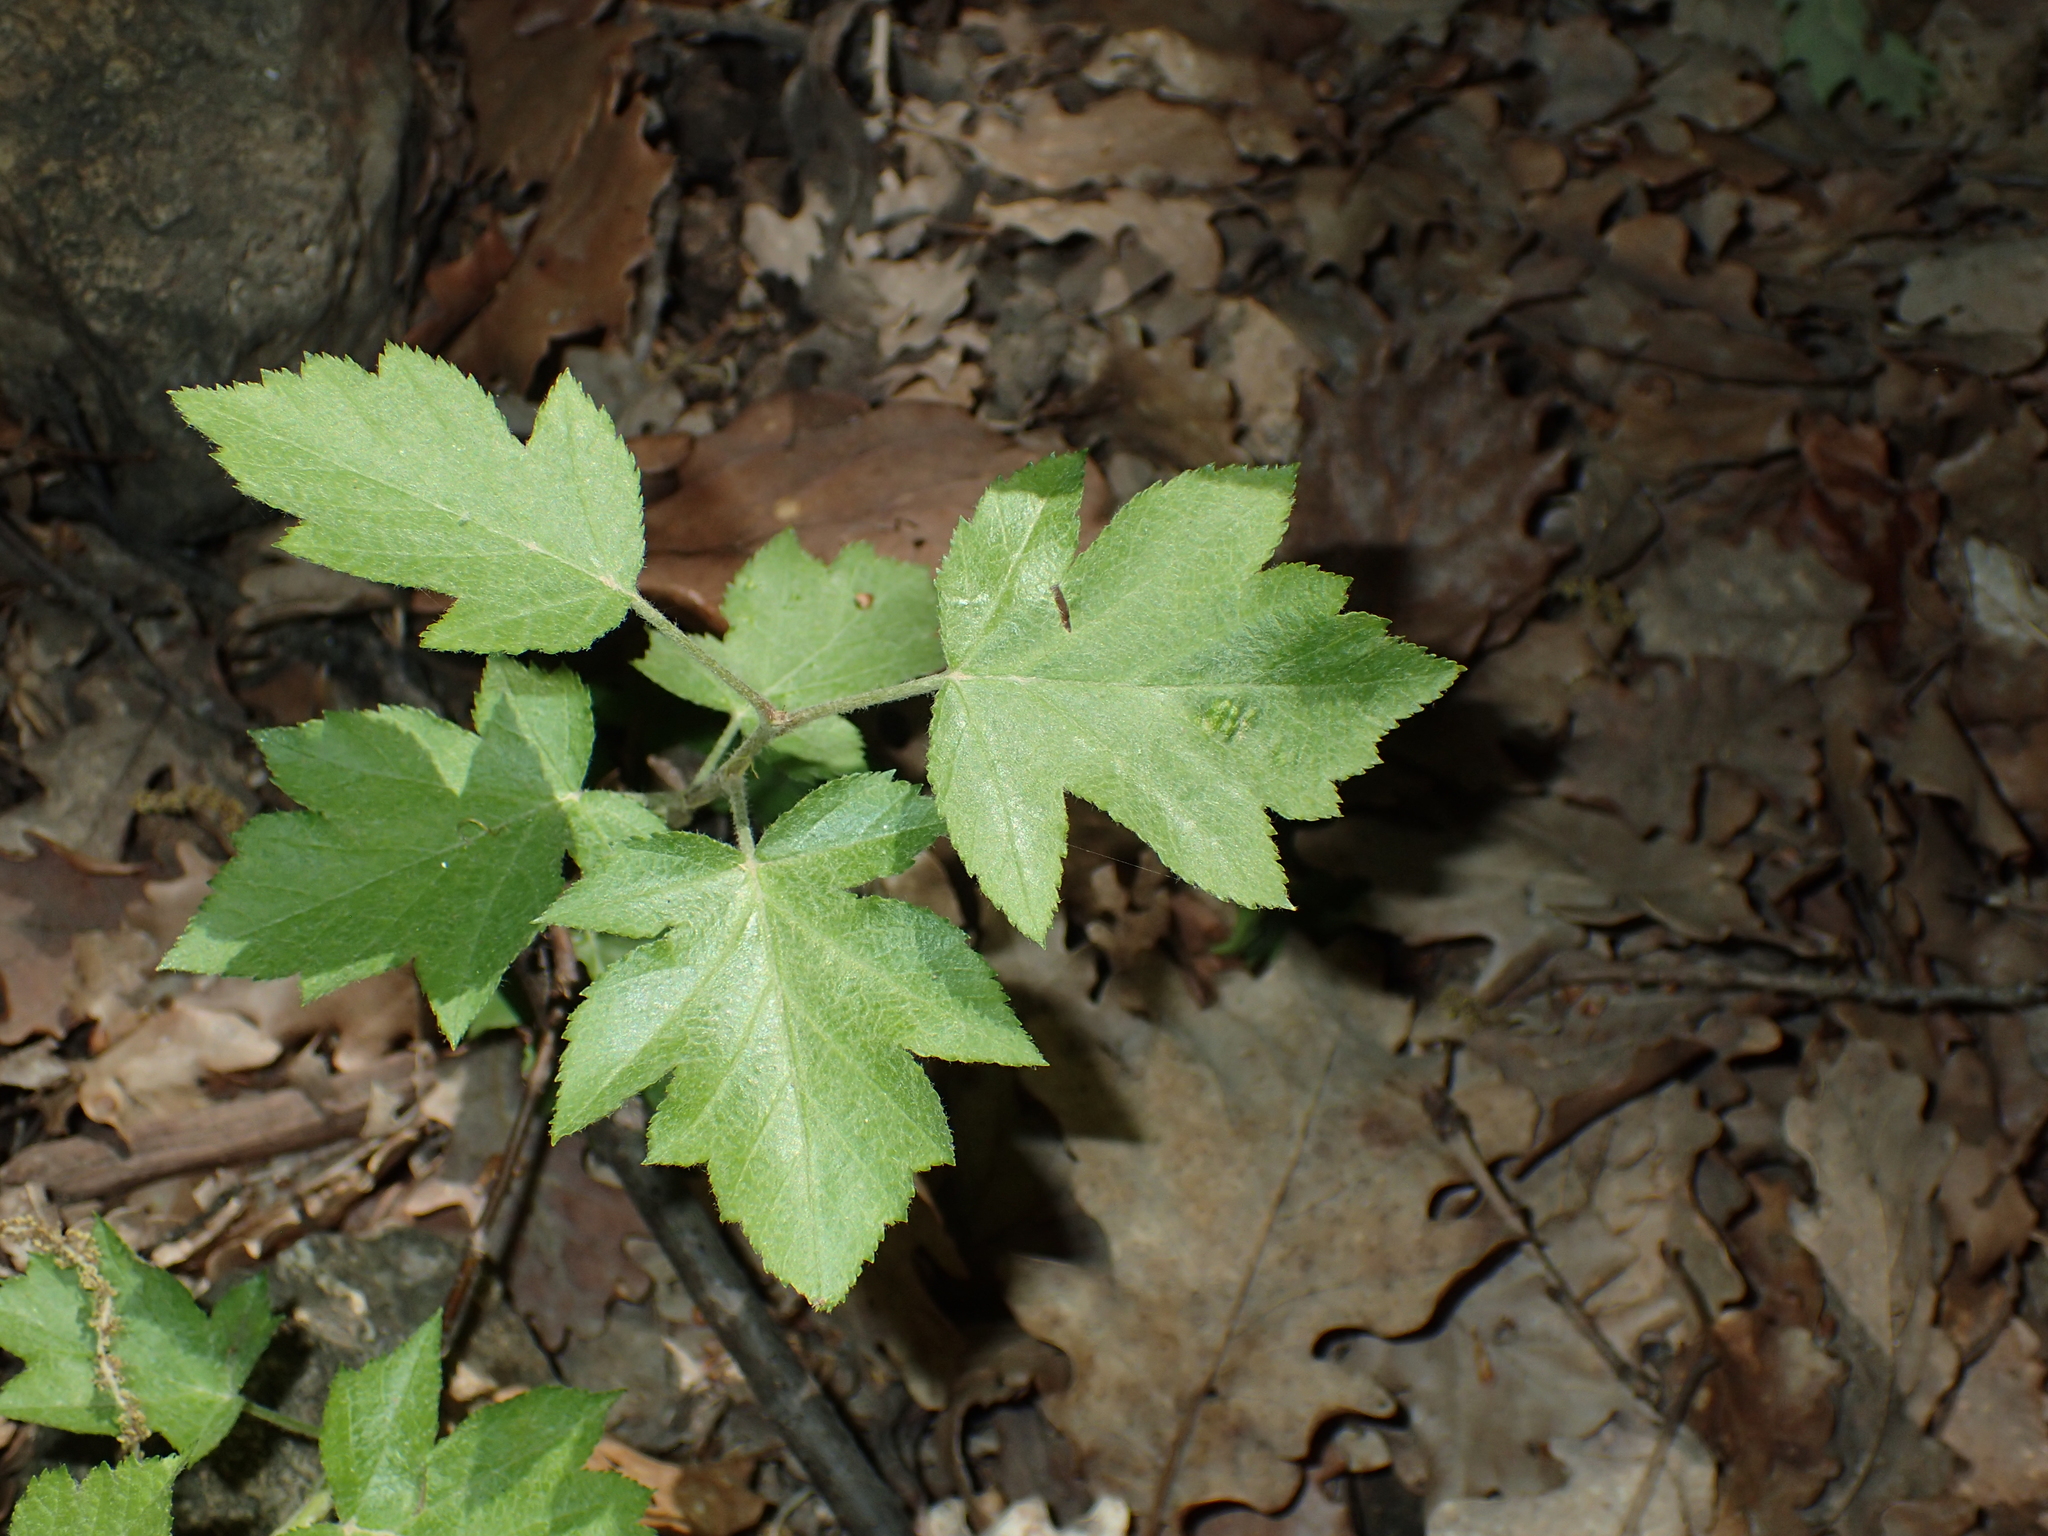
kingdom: Plantae
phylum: Tracheophyta
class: Magnoliopsida
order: Rosales
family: Rosaceae
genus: Torminalis
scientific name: Torminalis glaberrima
